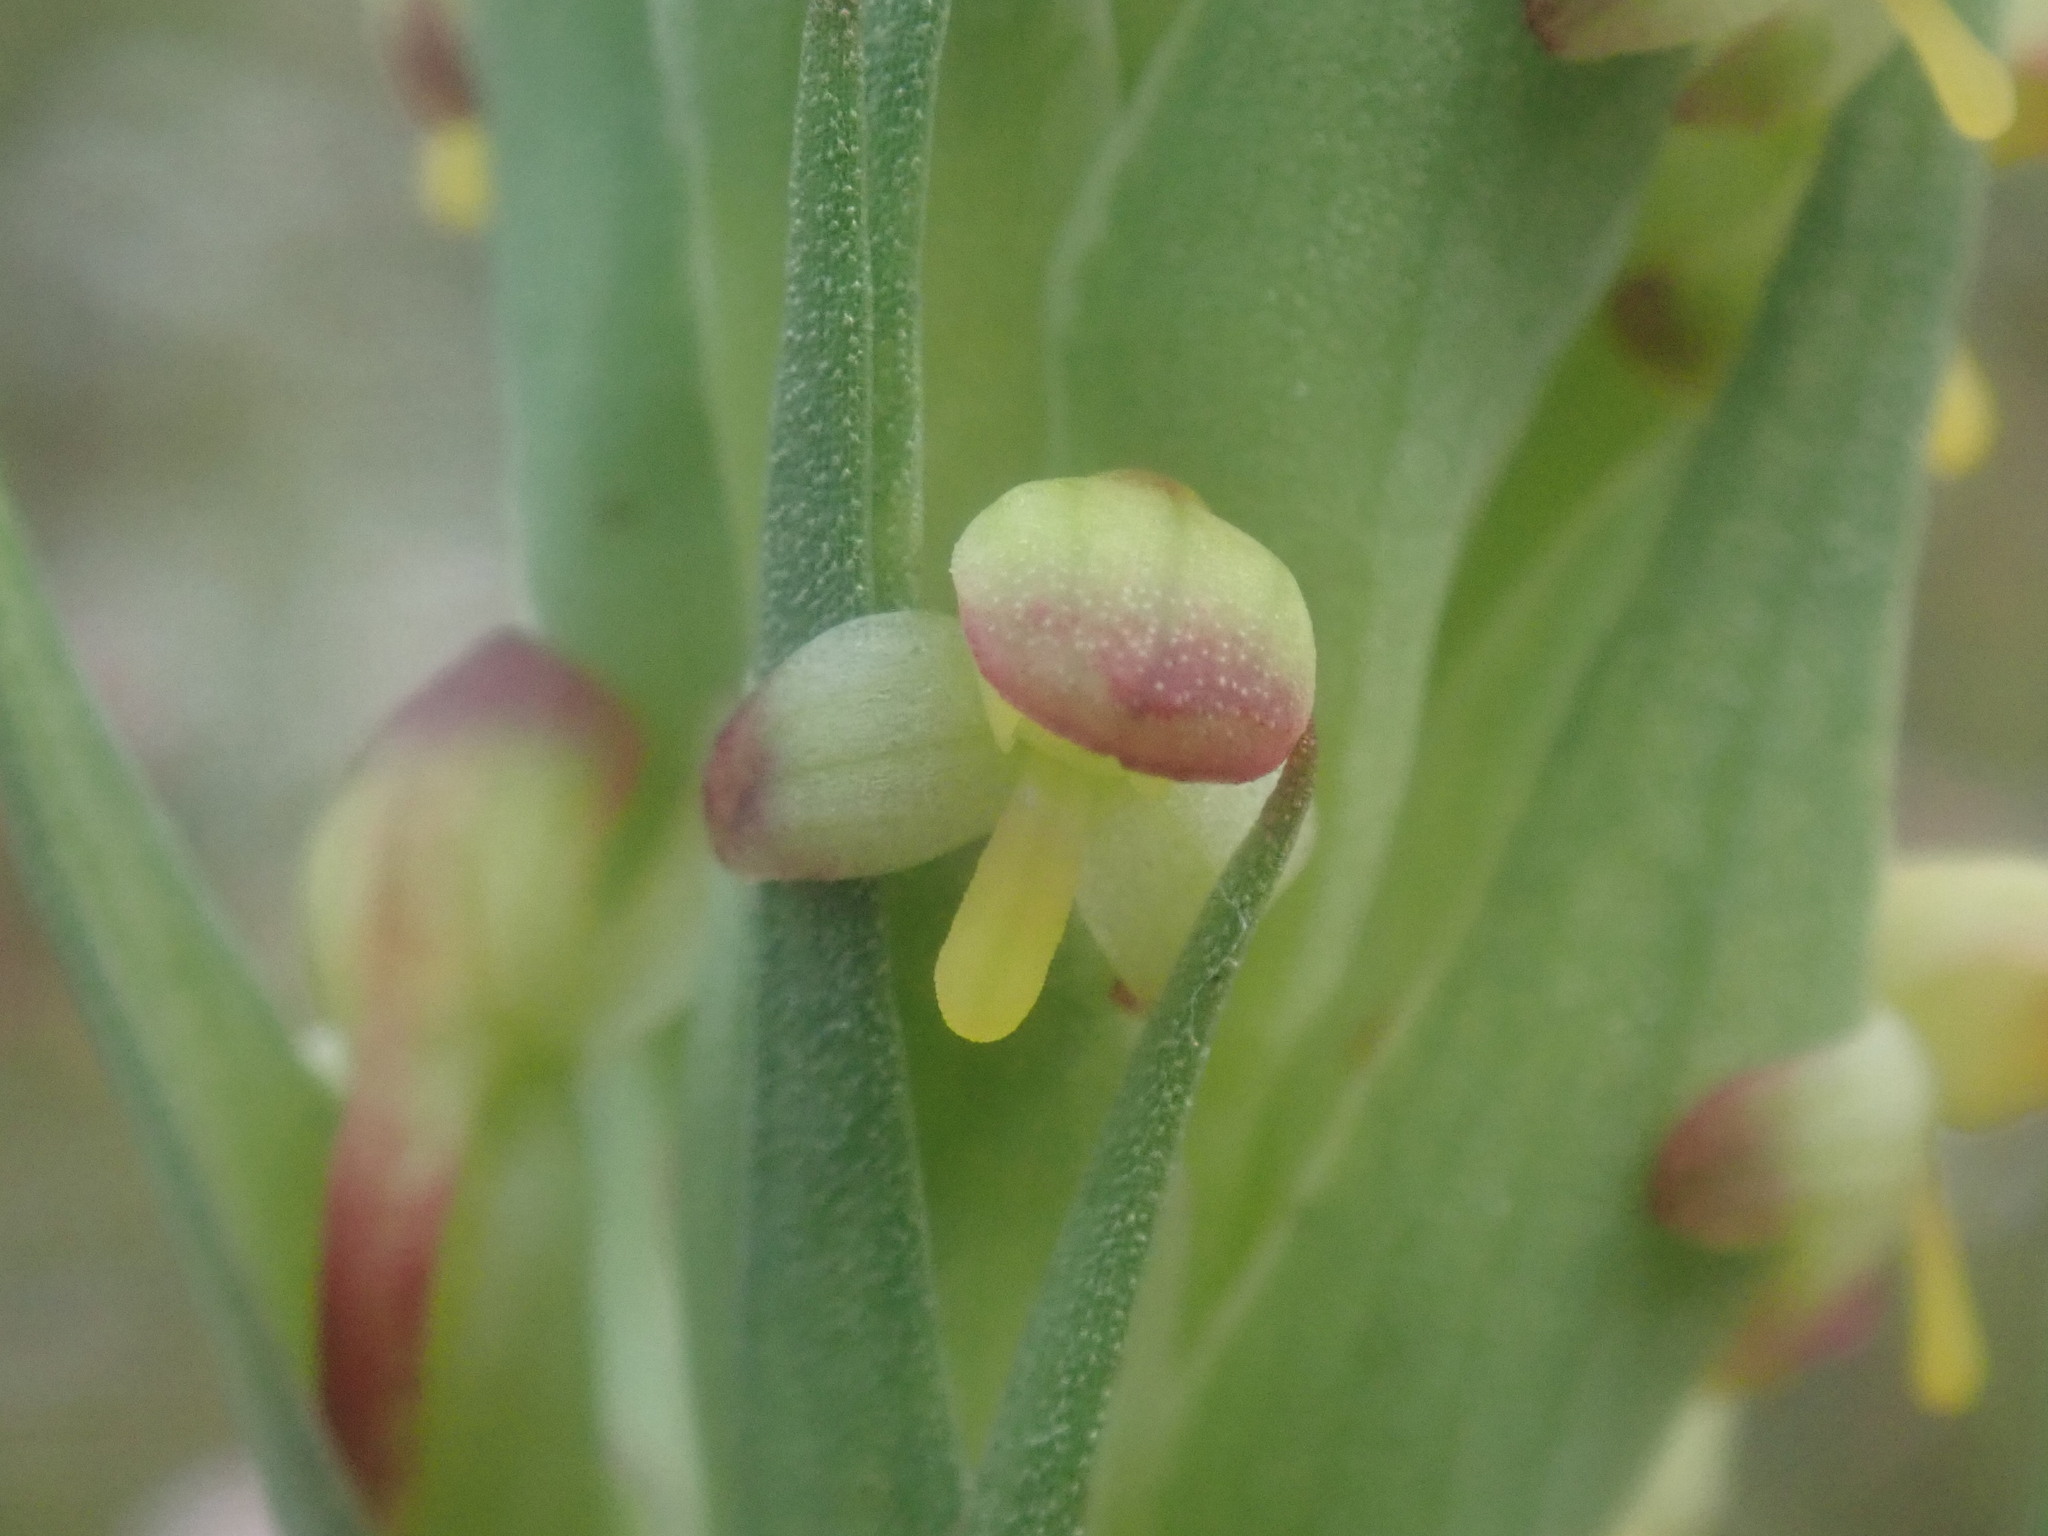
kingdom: Plantae
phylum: Tracheophyta
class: Liliopsida
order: Asparagales
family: Orchidaceae
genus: Disa
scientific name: Disa bracteata
